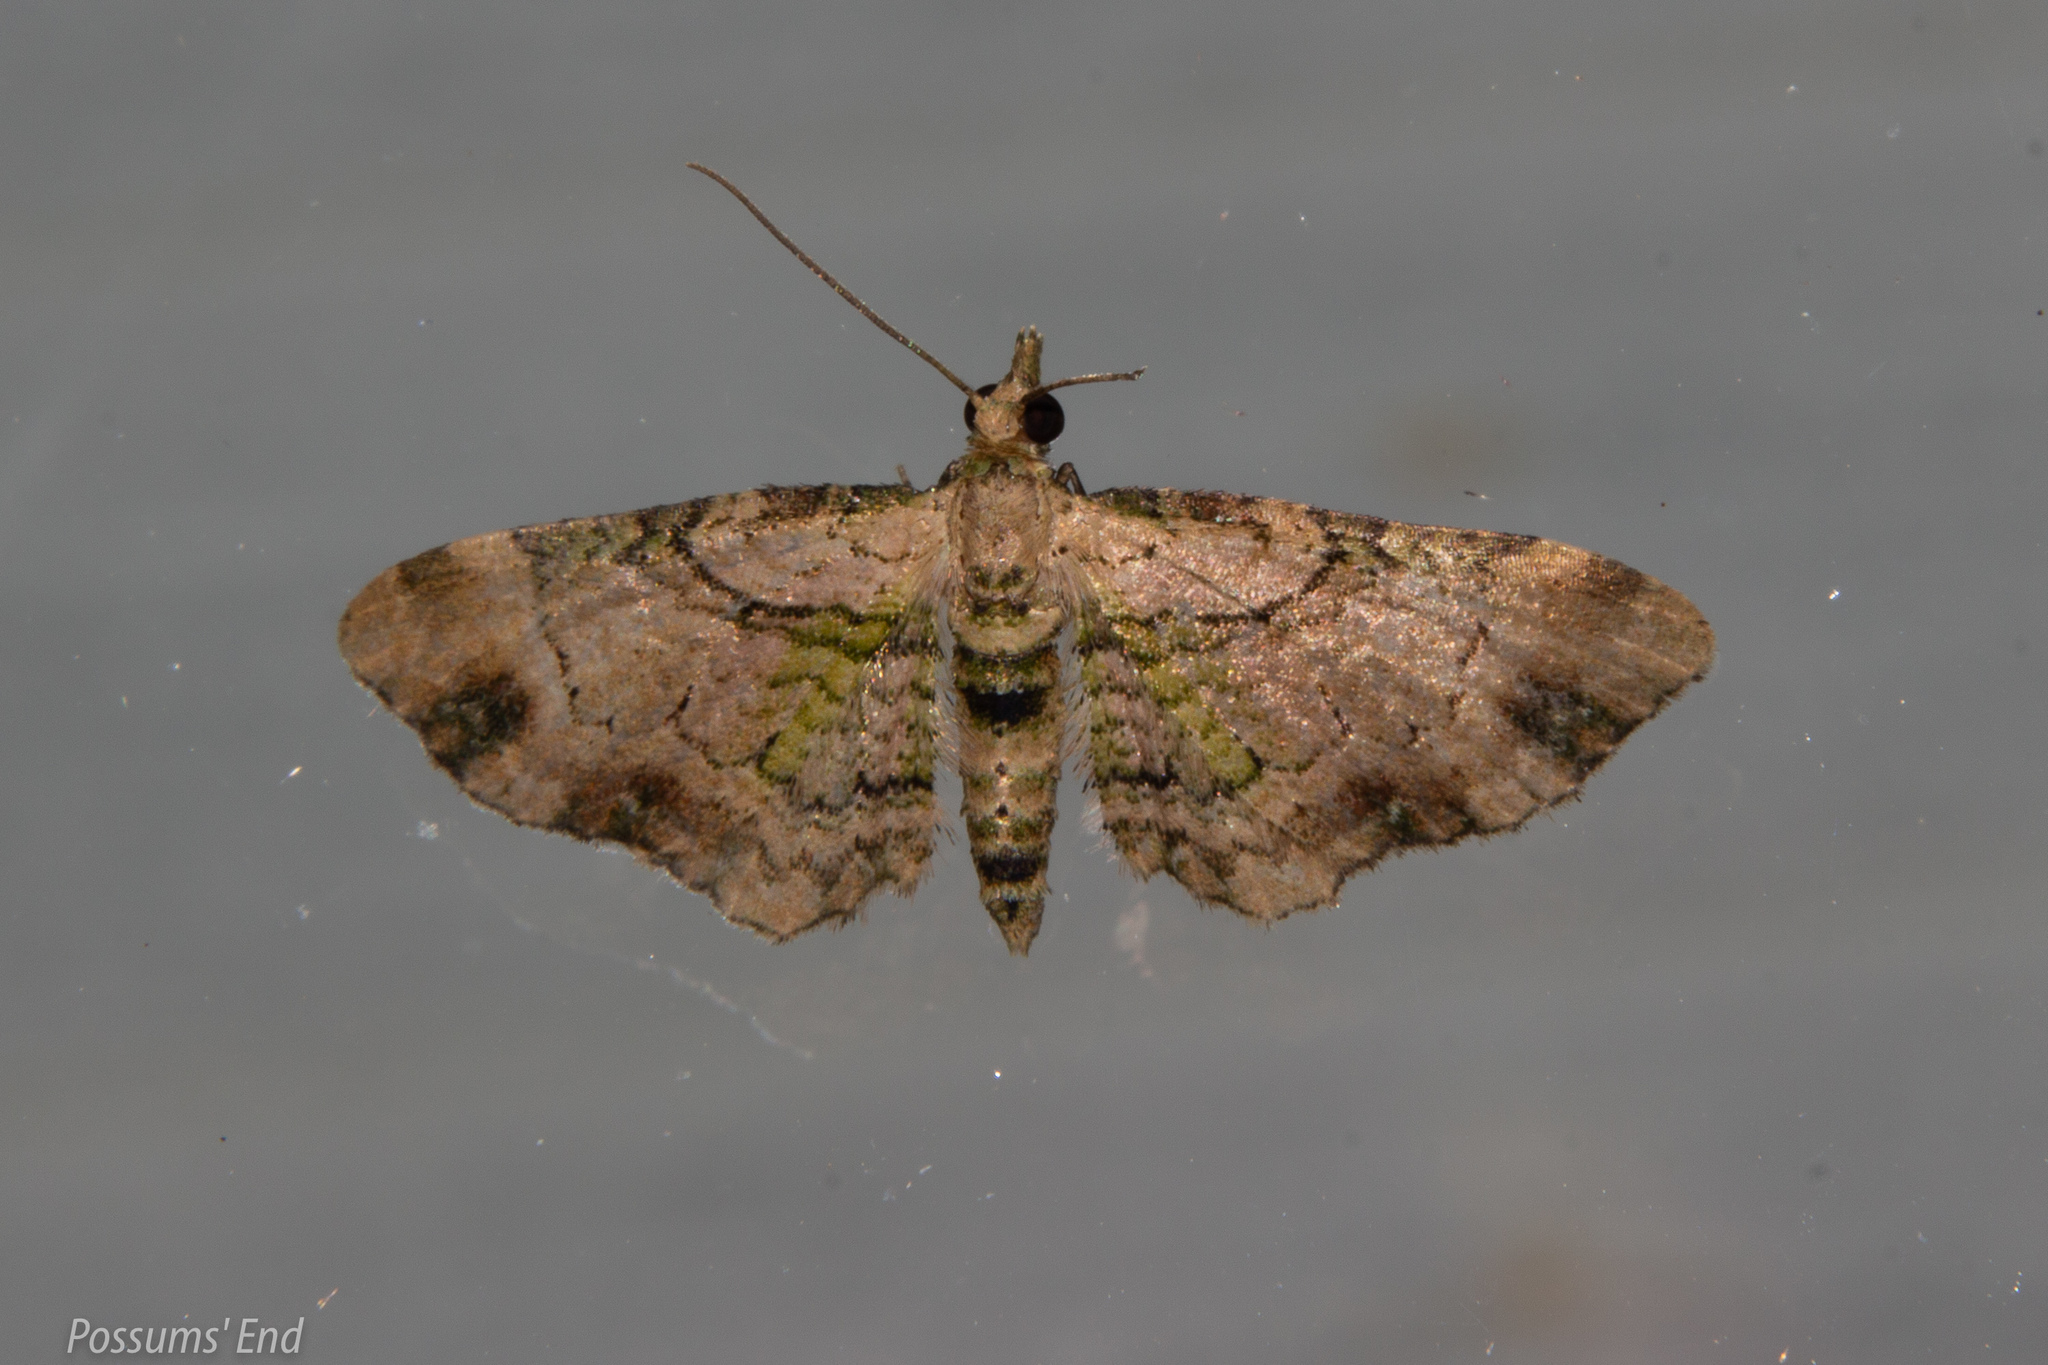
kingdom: Animalia
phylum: Arthropoda
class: Insecta
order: Lepidoptera
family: Geometridae
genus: Chloroclystis
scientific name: Chloroclystis
